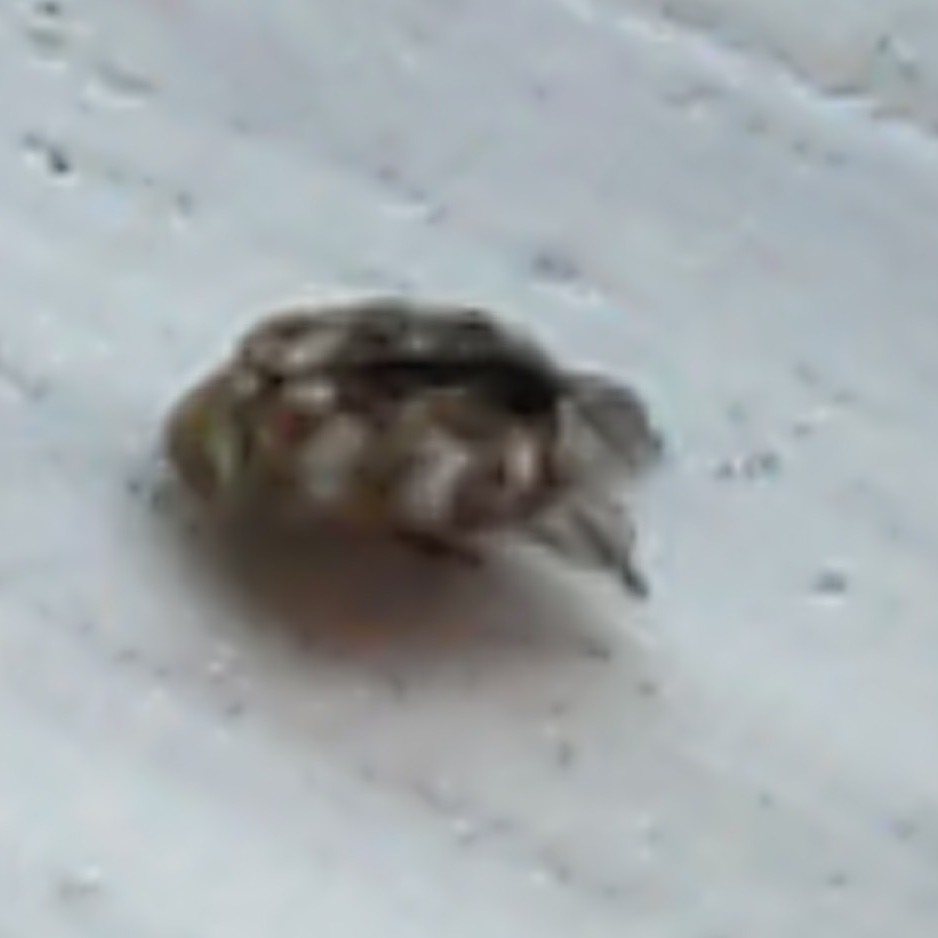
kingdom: Animalia
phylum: Arthropoda
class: Insecta
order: Coleoptera
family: Dermestidae
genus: Anthrenus
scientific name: Anthrenus verbasci
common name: Varied carpet beetle
